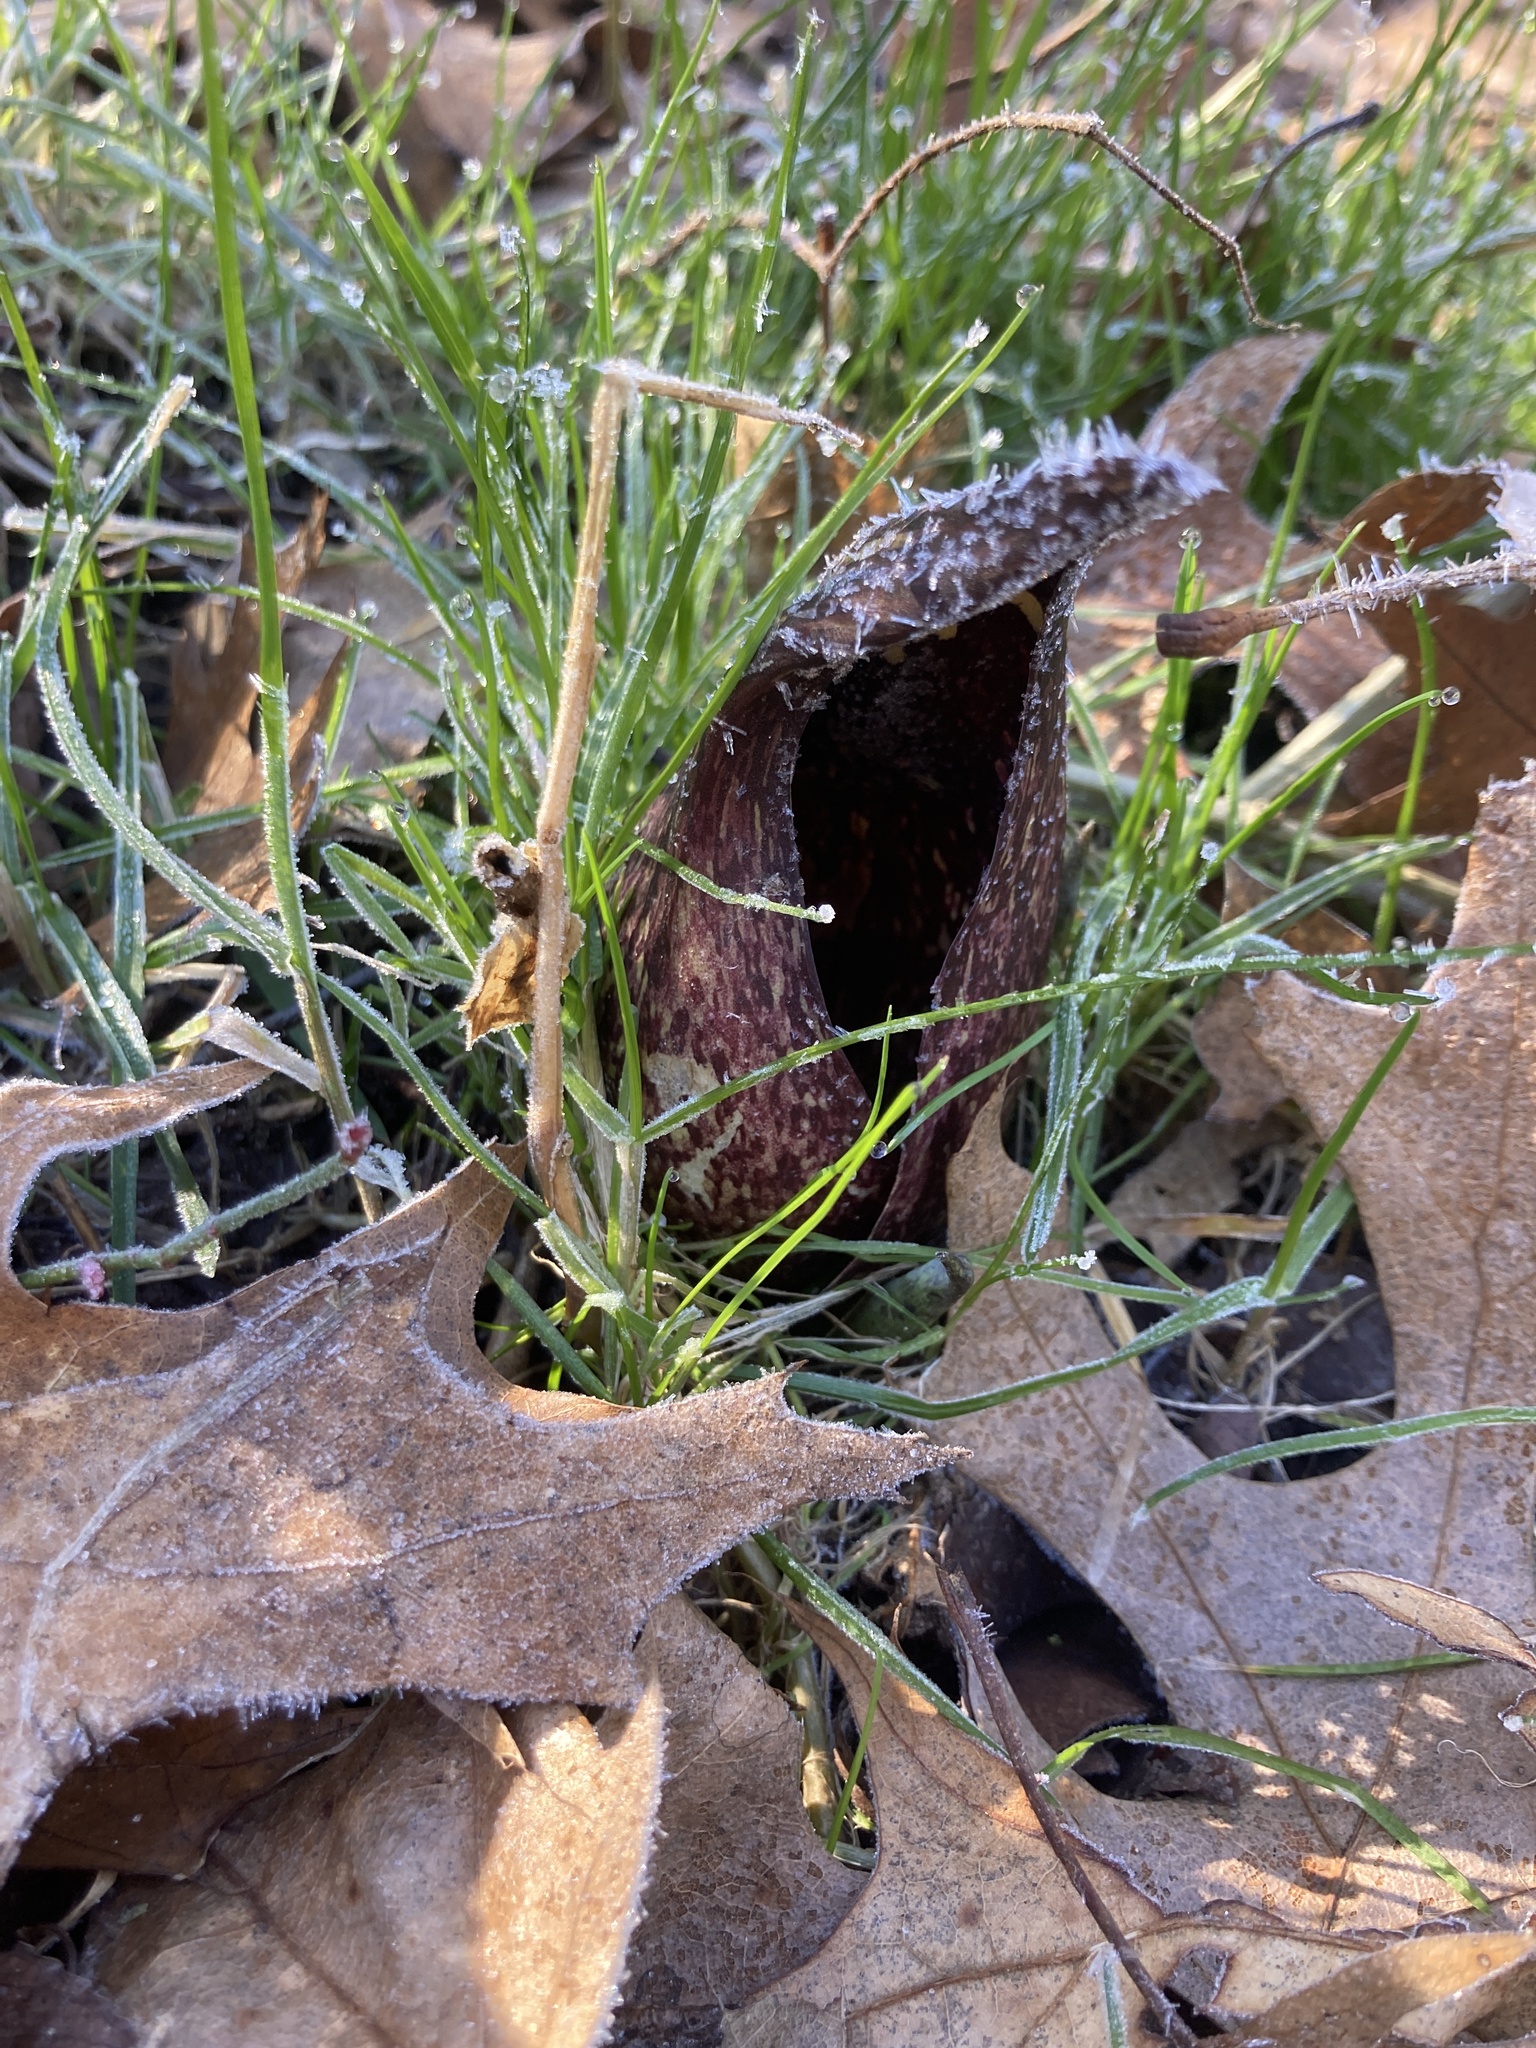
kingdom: Plantae
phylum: Tracheophyta
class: Liliopsida
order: Alismatales
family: Araceae
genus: Symplocarpus
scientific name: Symplocarpus foetidus
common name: Eastern skunk cabbage
